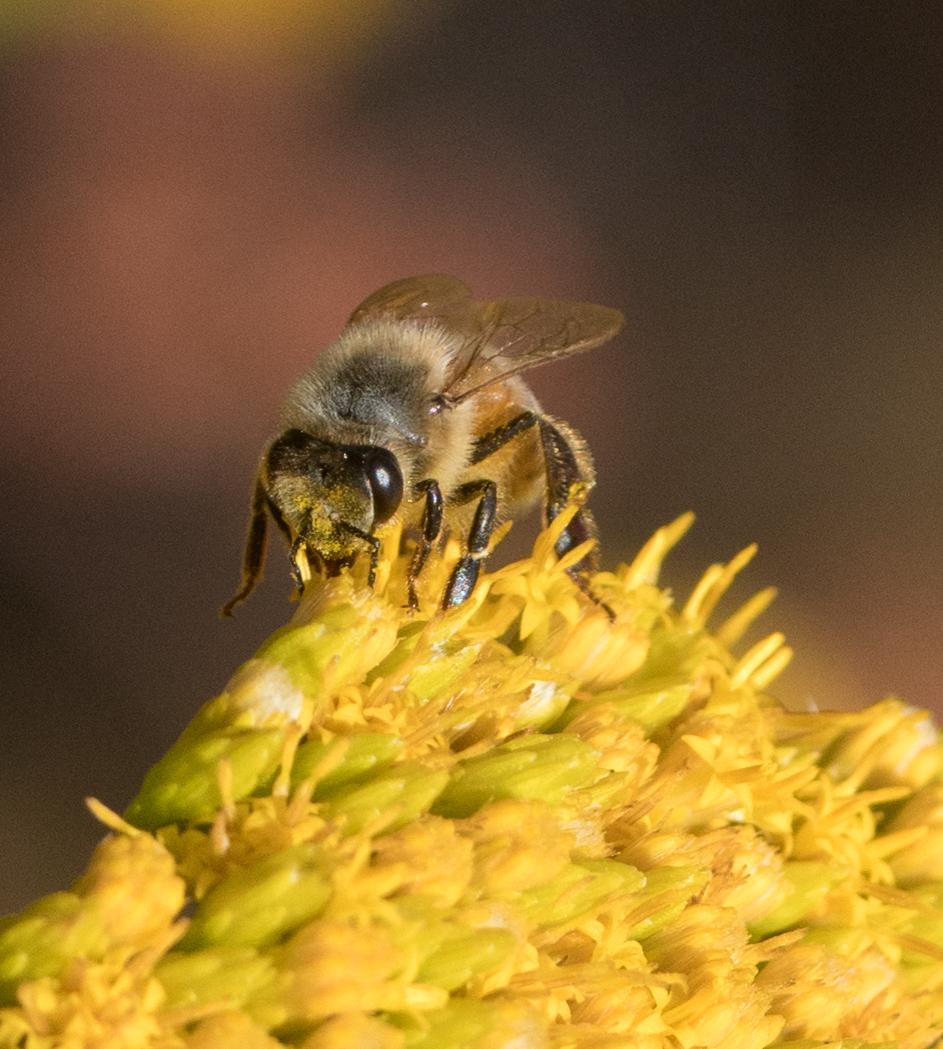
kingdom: Animalia
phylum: Arthropoda
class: Insecta
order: Hymenoptera
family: Apidae
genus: Apis
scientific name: Apis mellifera
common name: Honey bee
